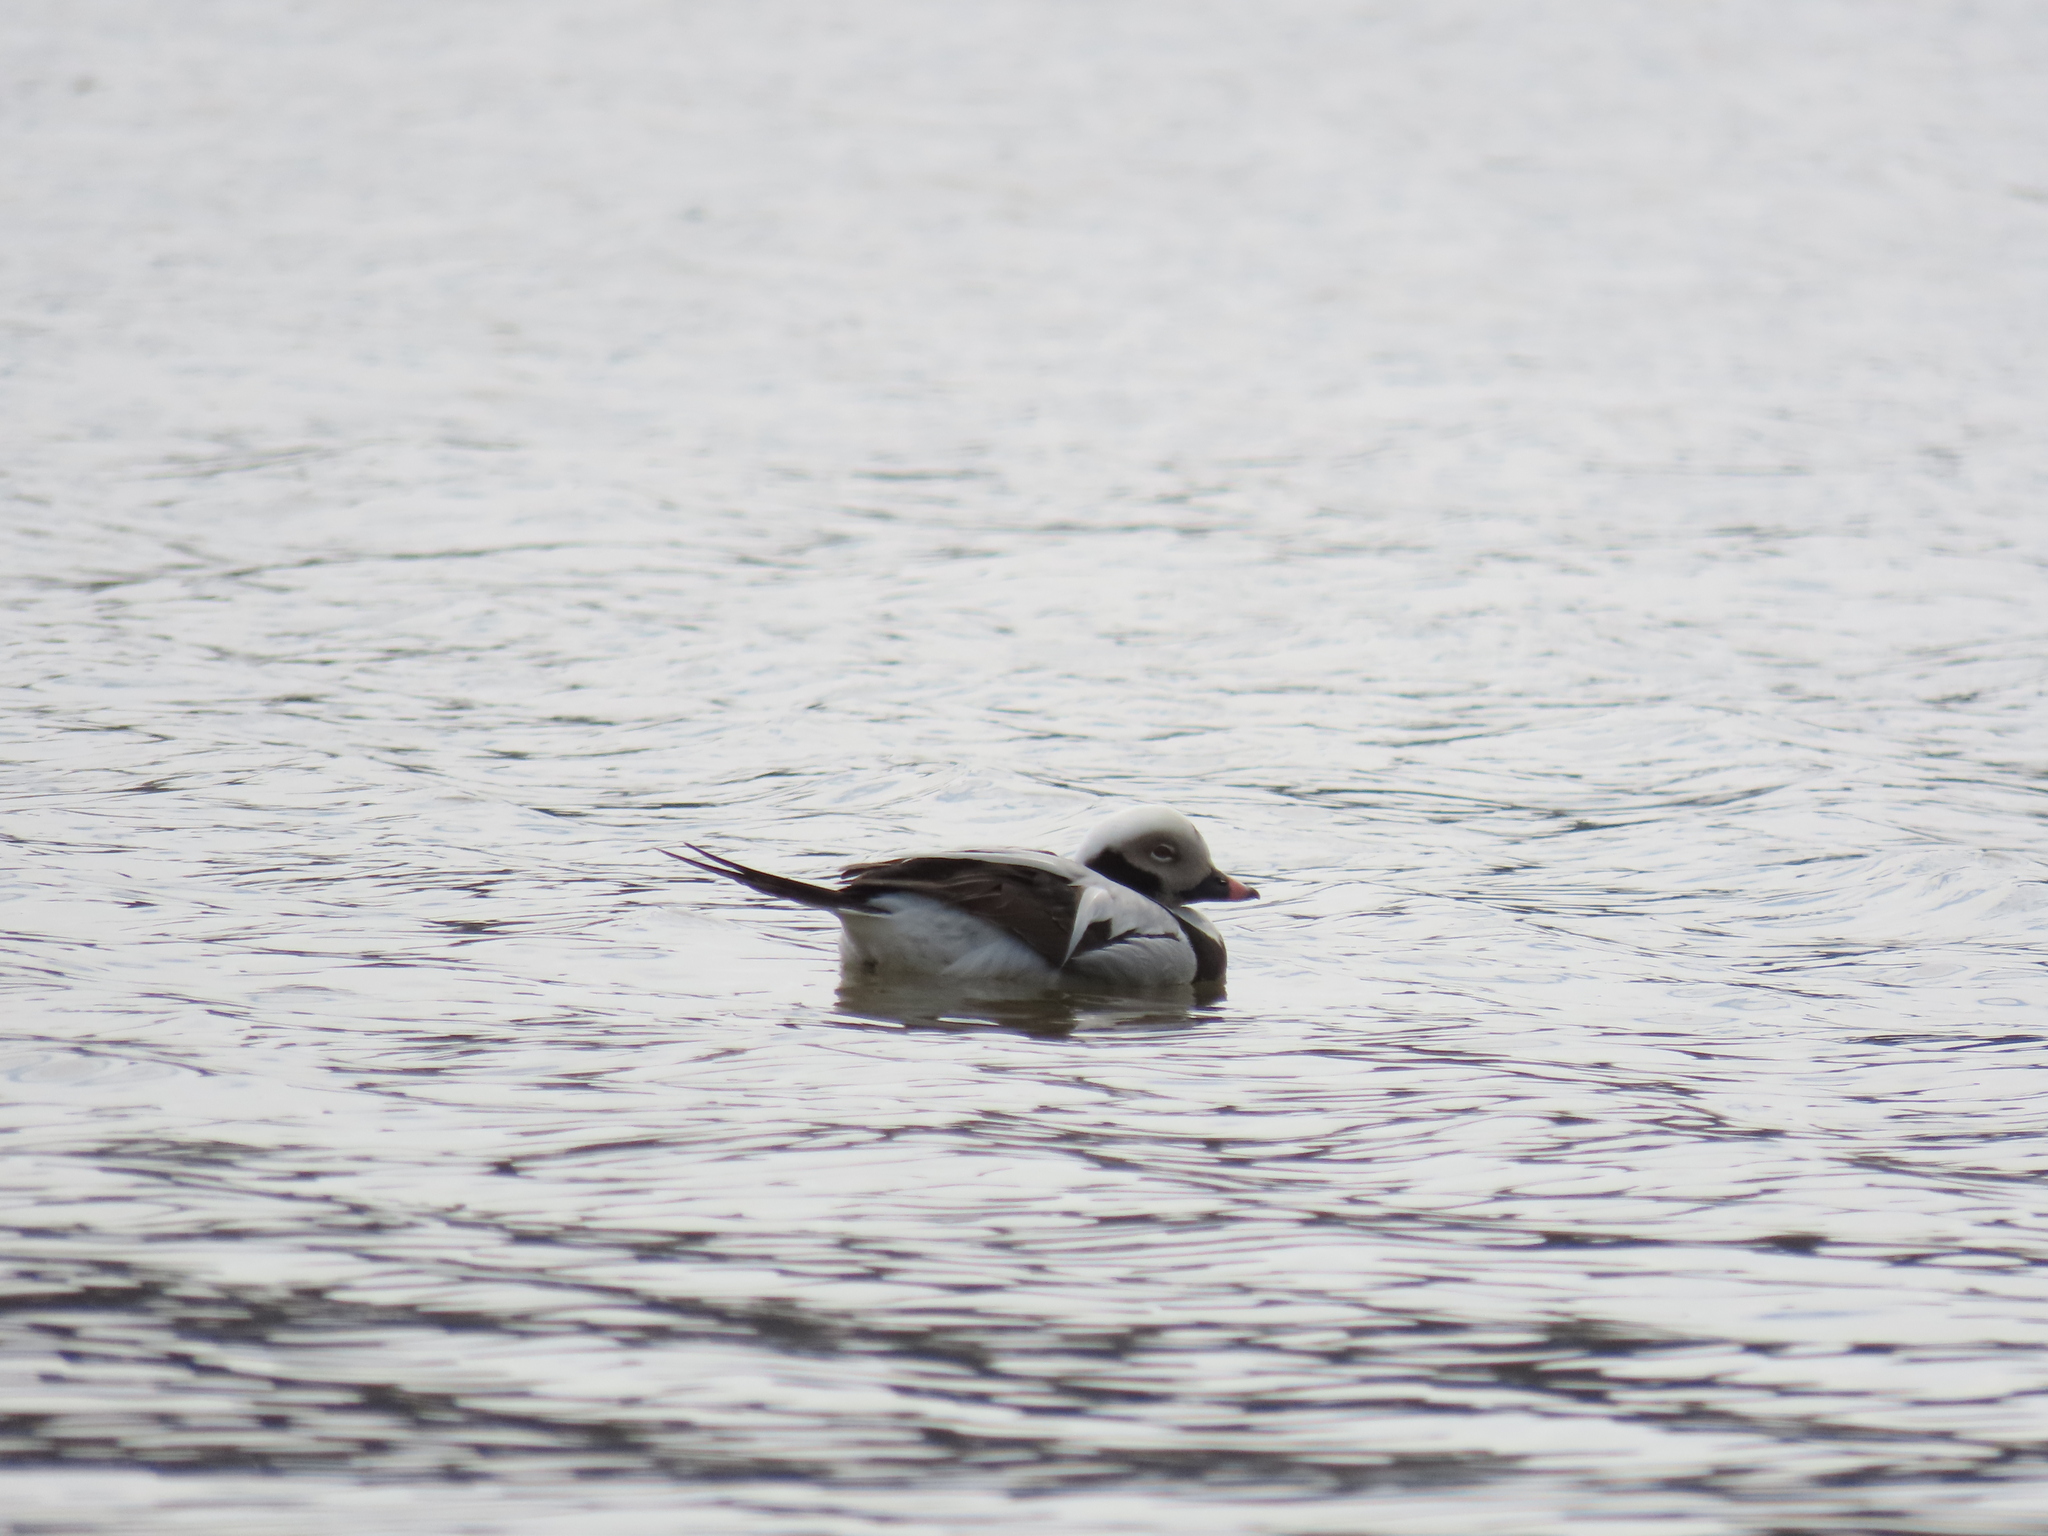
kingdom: Animalia
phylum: Chordata
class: Aves
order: Anseriformes
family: Anatidae
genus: Clangula
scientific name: Clangula hyemalis
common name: Long-tailed duck
